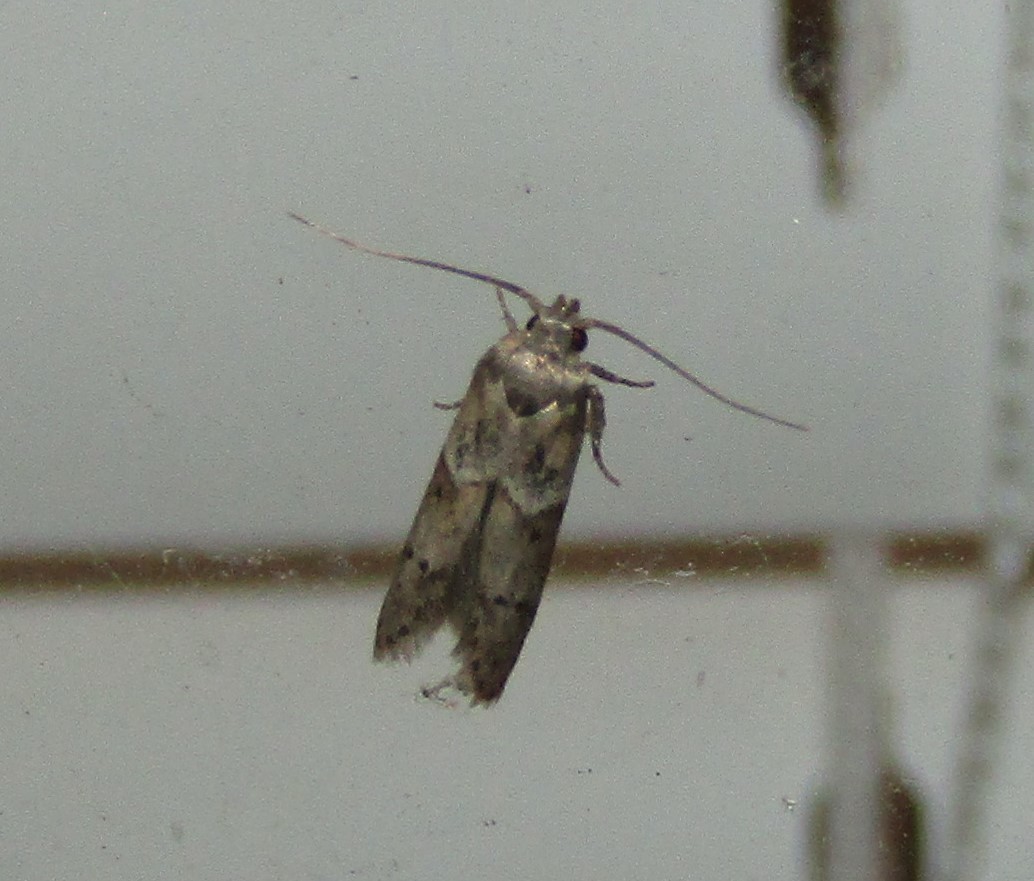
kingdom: Animalia
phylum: Arthropoda
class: Insecta
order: Lepidoptera
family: Blastobasidae
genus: Blastobasis
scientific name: Blastobasis glandulella
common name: Acorn moth
